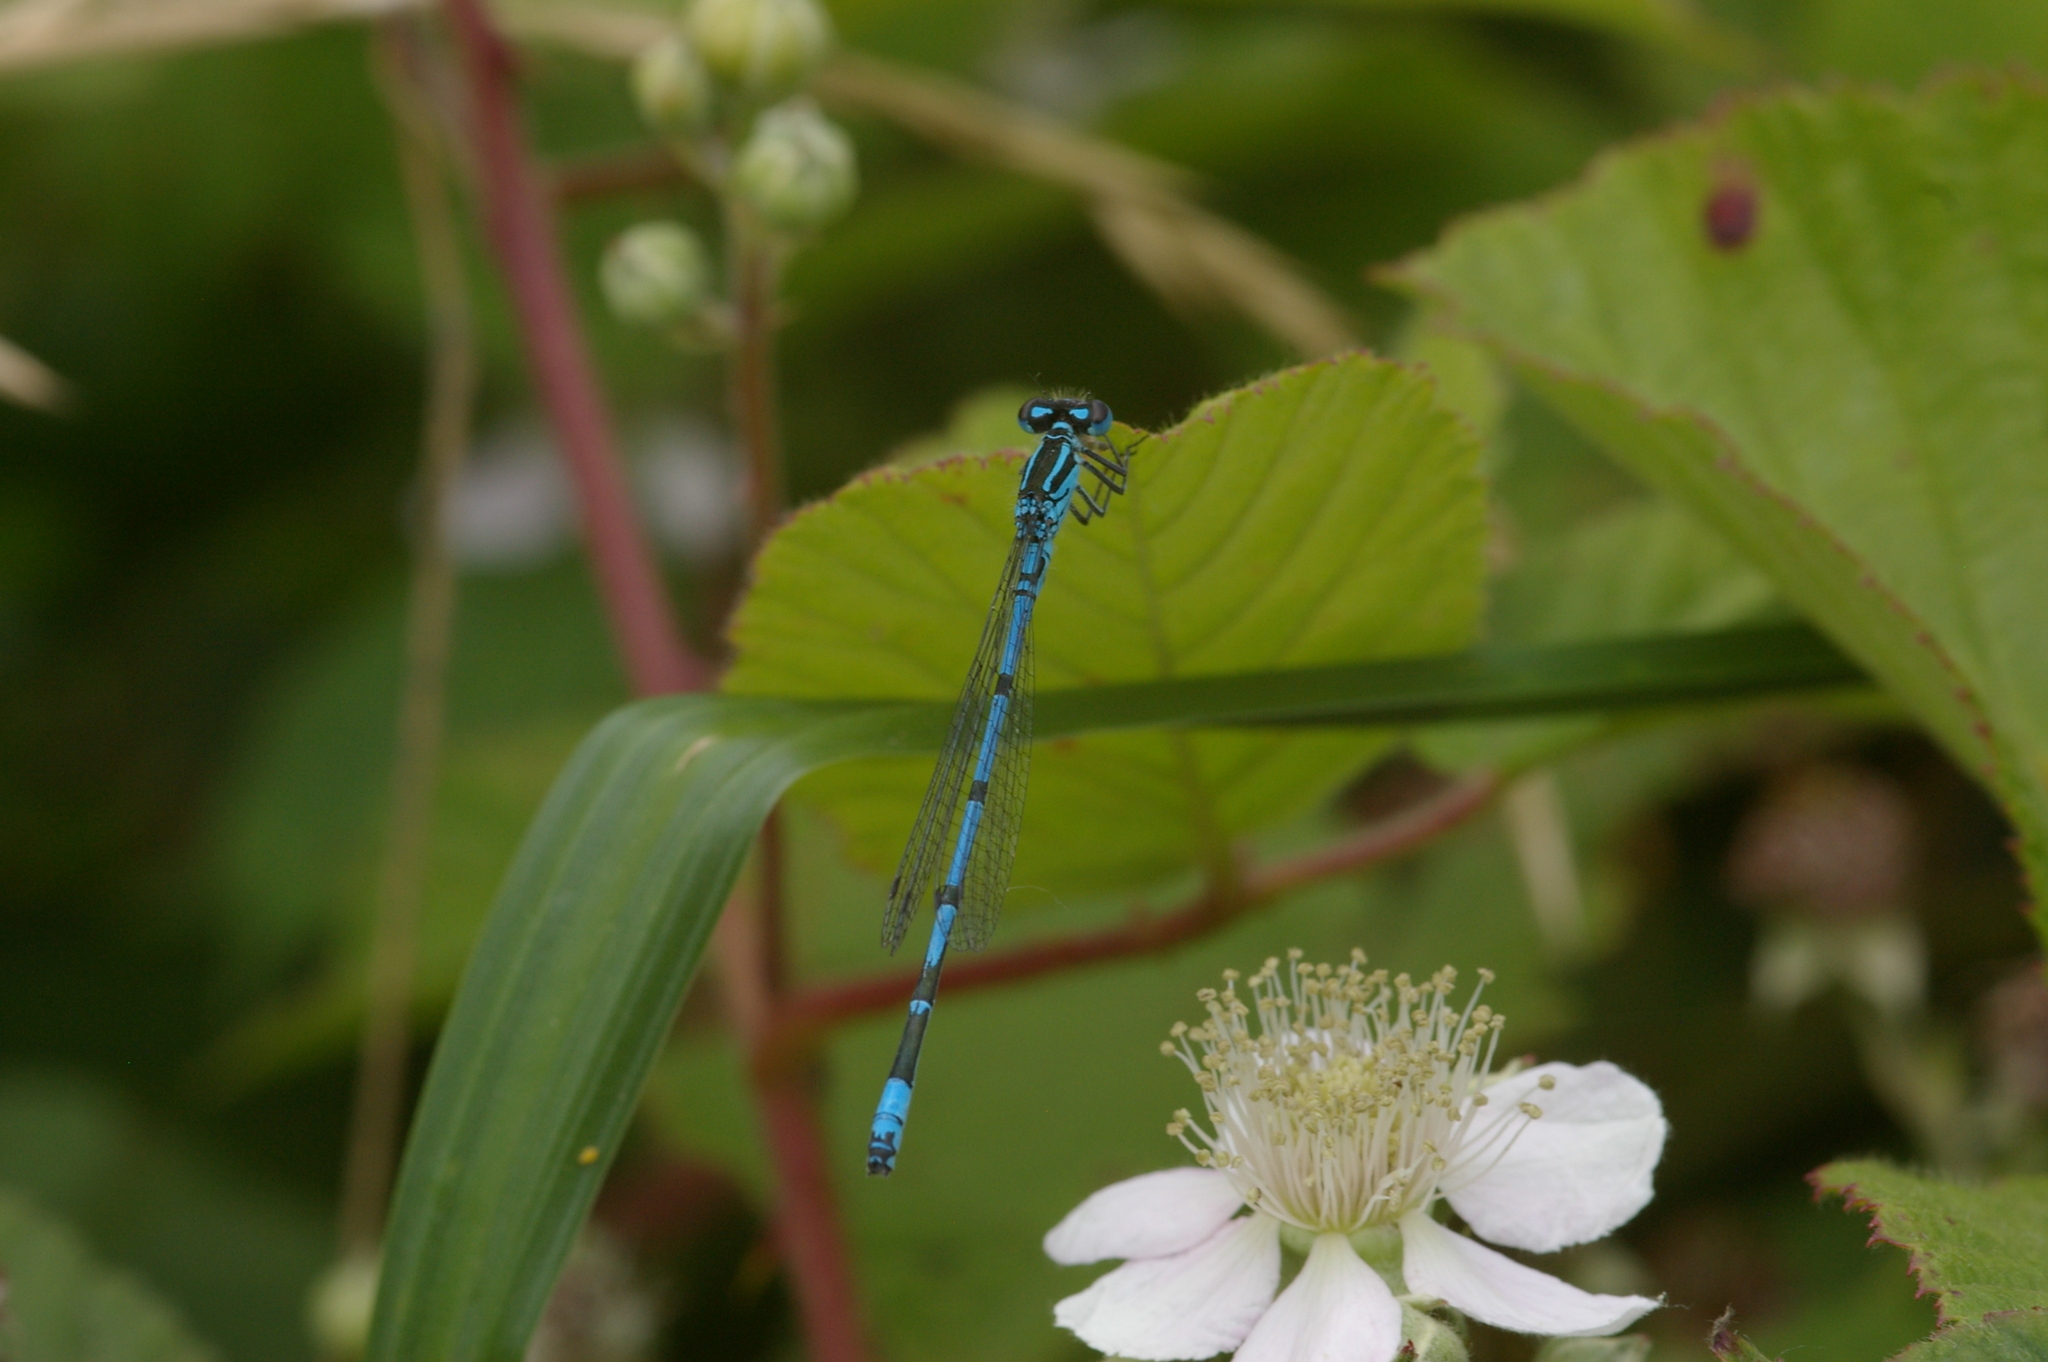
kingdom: Animalia
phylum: Arthropoda
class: Insecta
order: Odonata
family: Coenagrionidae
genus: Coenagrion
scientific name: Coenagrion puella
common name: Azure damselfly
